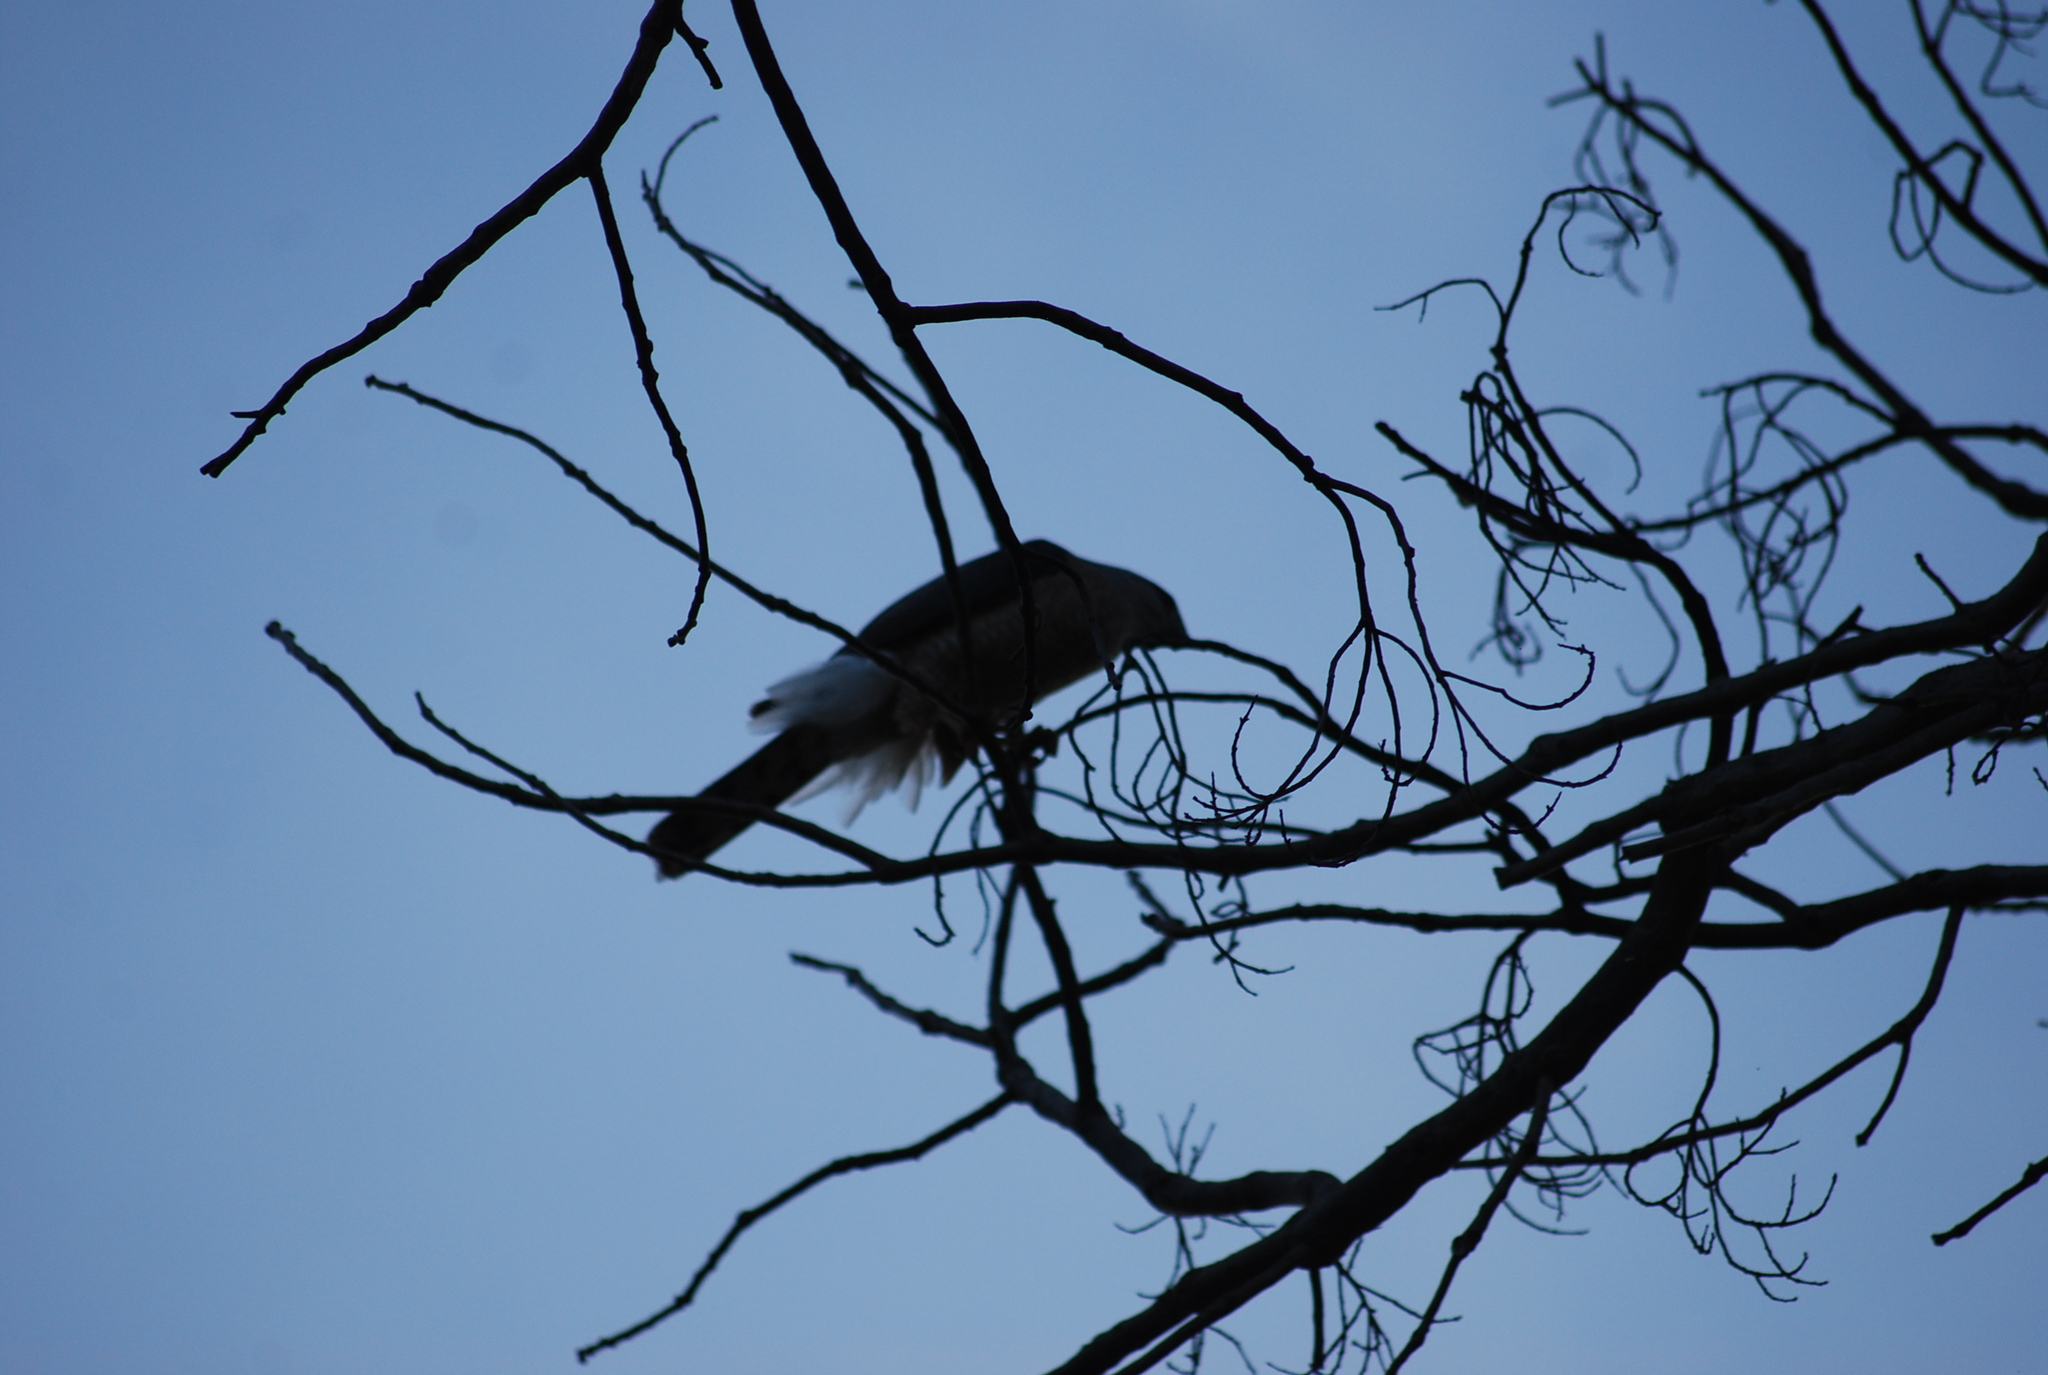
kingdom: Animalia
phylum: Chordata
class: Aves
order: Accipitriformes
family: Accipitridae
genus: Accipiter
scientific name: Accipiter cooperii
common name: Cooper's hawk
